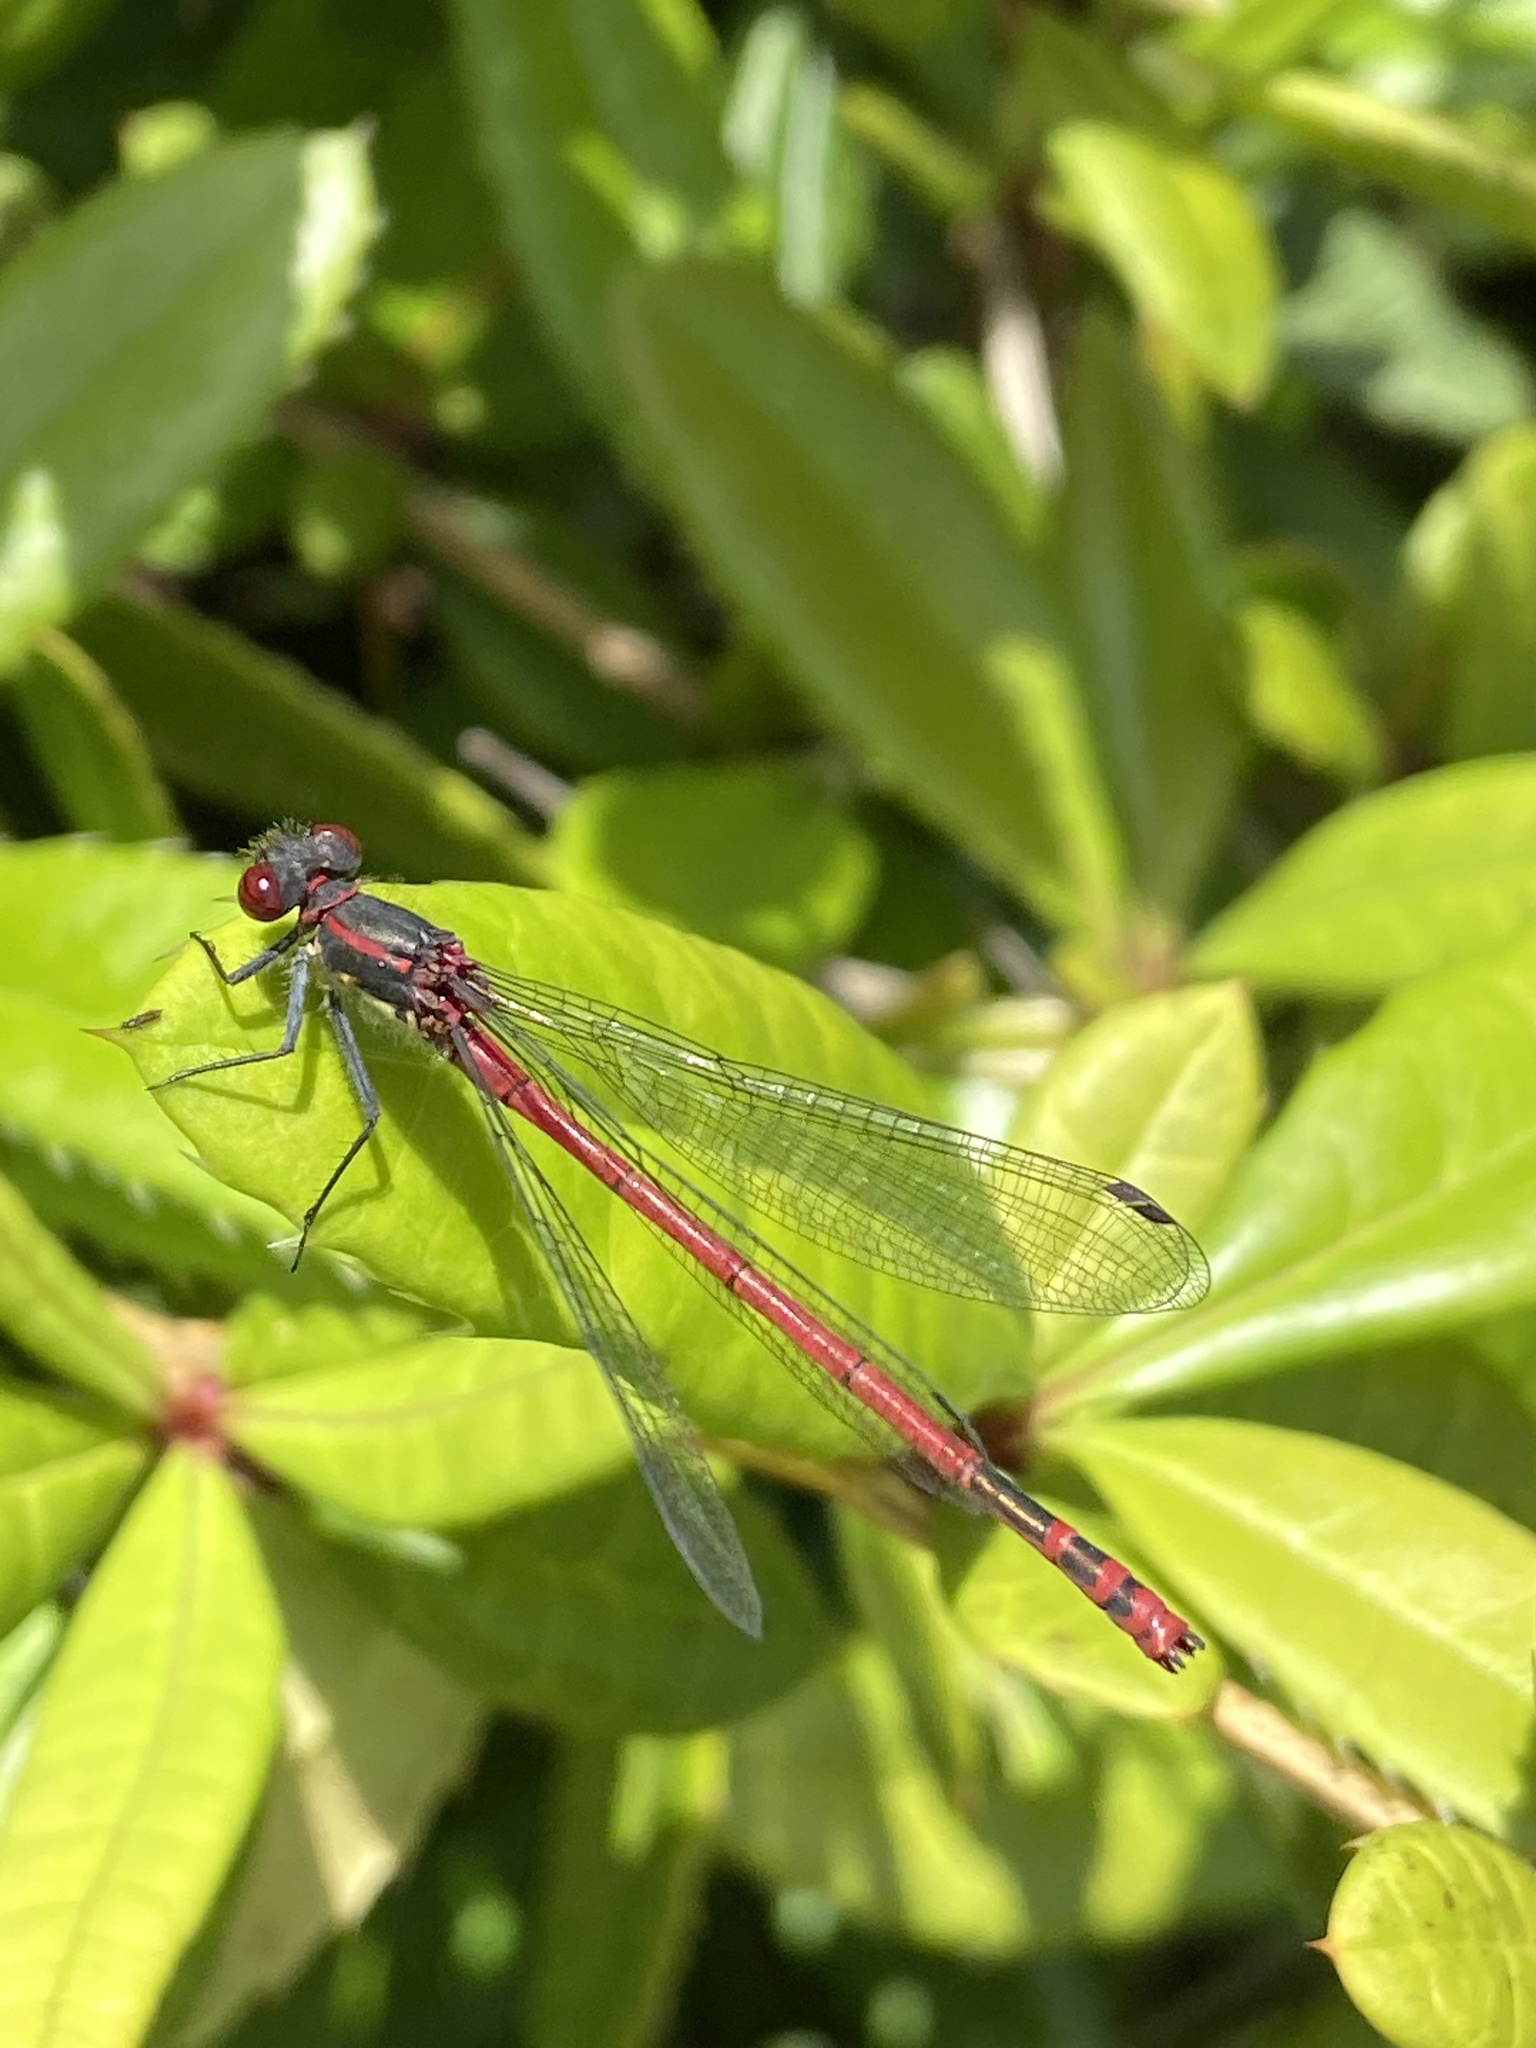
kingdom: Animalia
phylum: Arthropoda
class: Insecta
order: Odonata
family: Coenagrionidae
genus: Pyrrhosoma
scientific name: Pyrrhosoma nymphula
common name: Large red damsel
